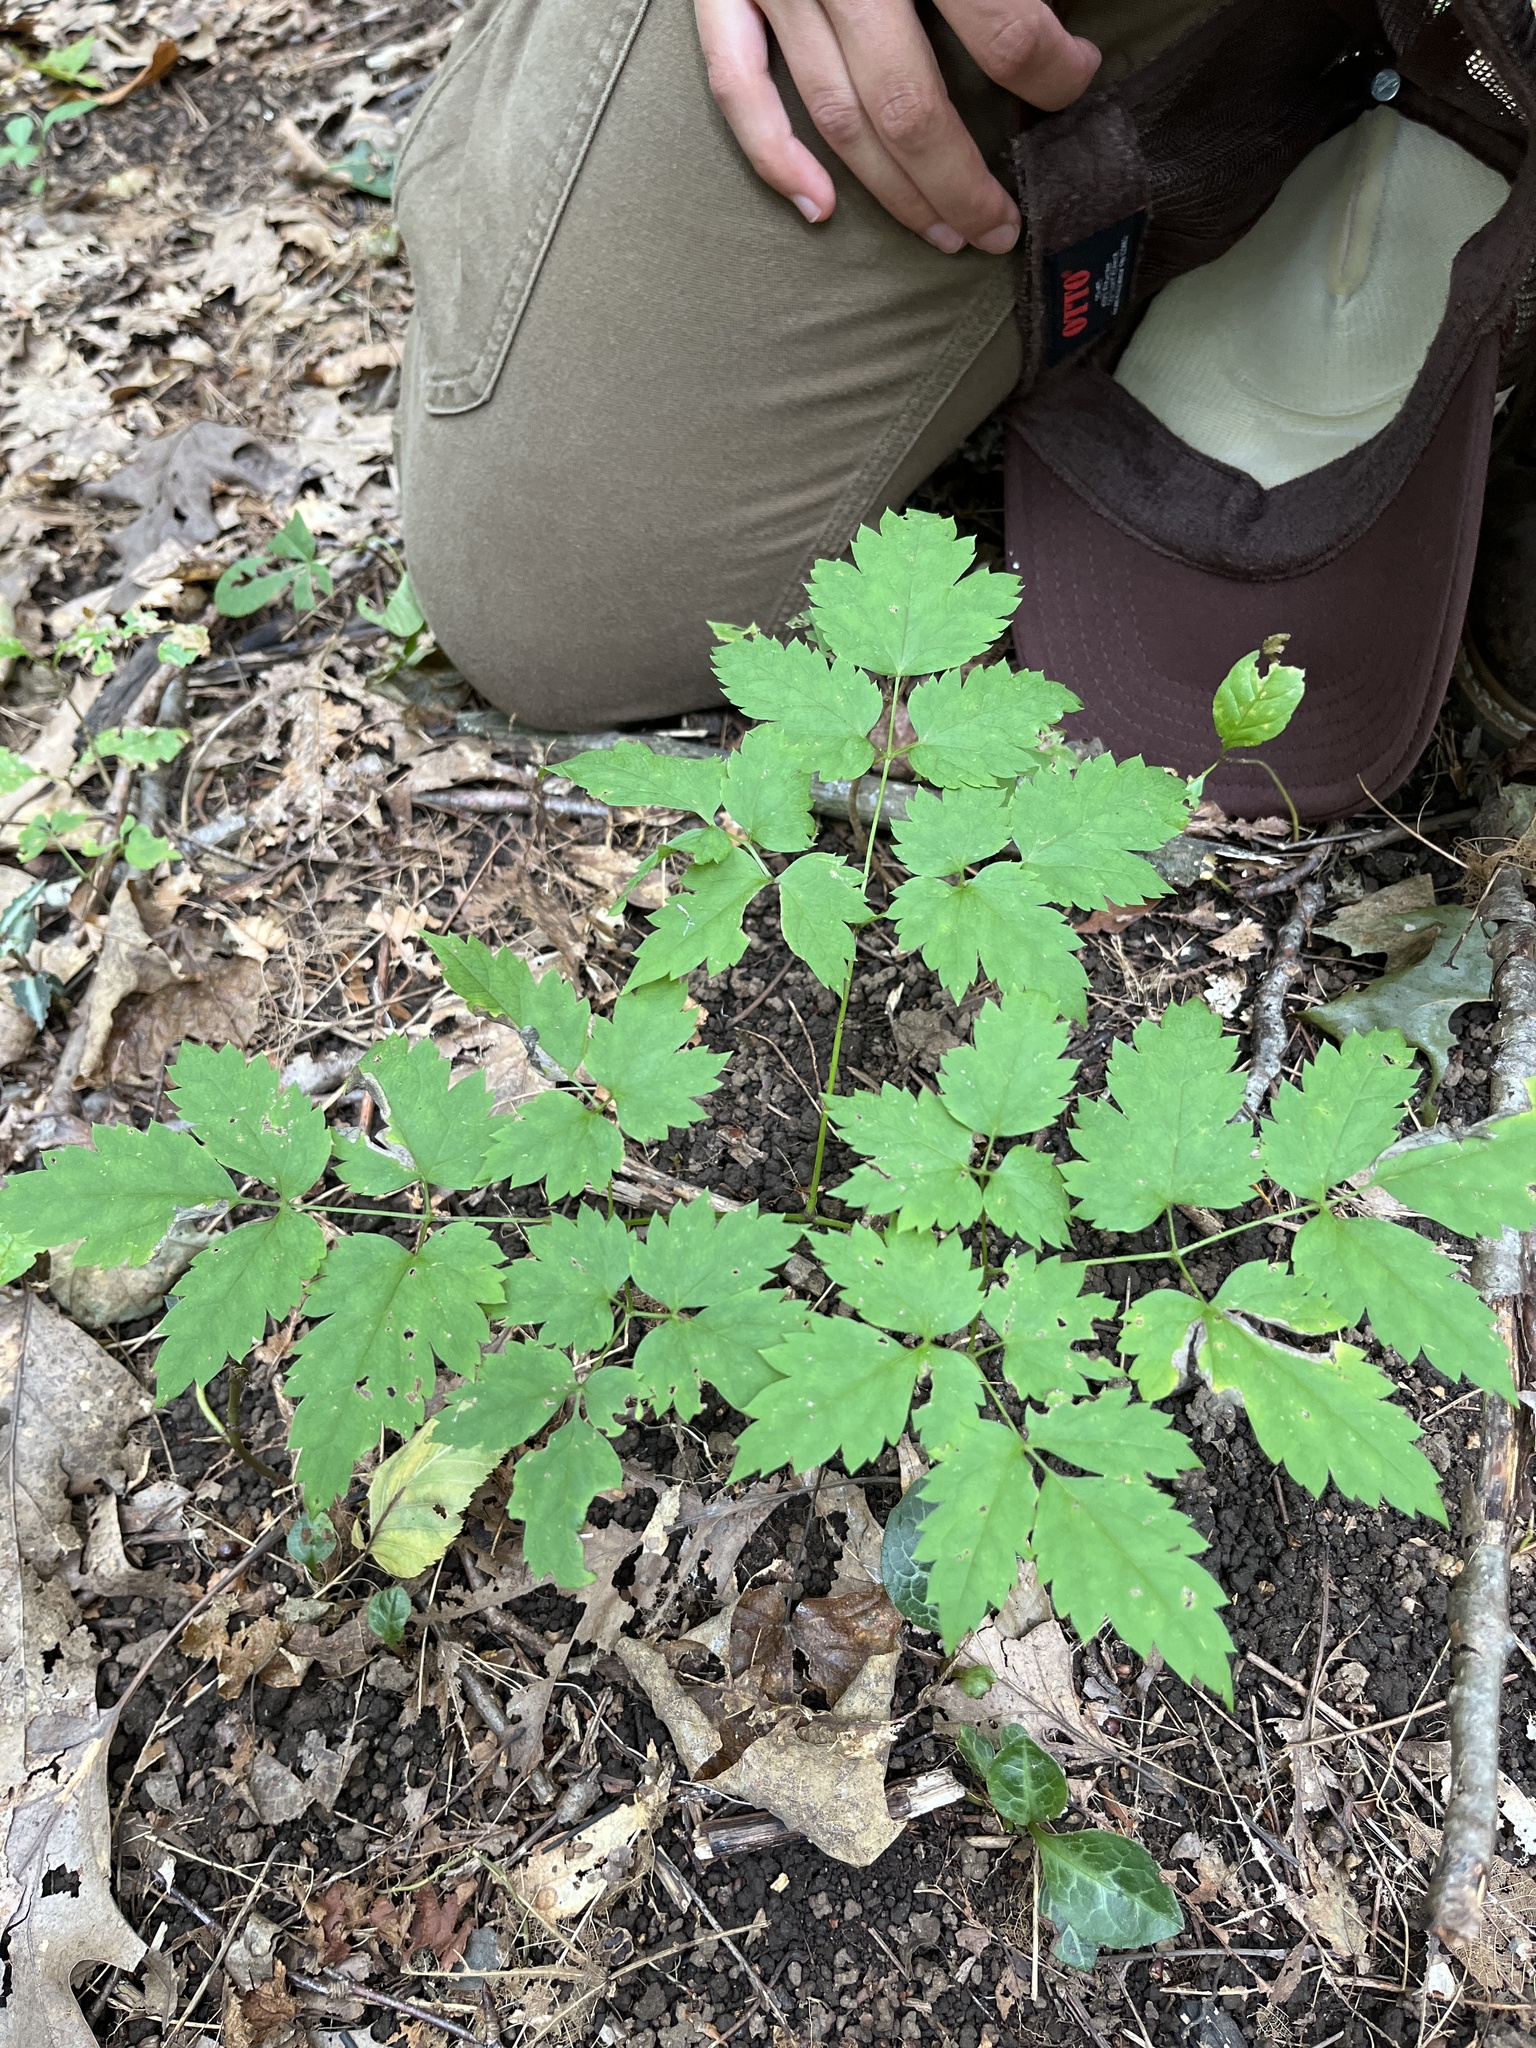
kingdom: Plantae
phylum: Tracheophyta
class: Magnoliopsida
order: Ranunculales
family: Ranunculaceae
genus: Actaea
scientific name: Actaea pachypoda
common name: Doll's-eyes
